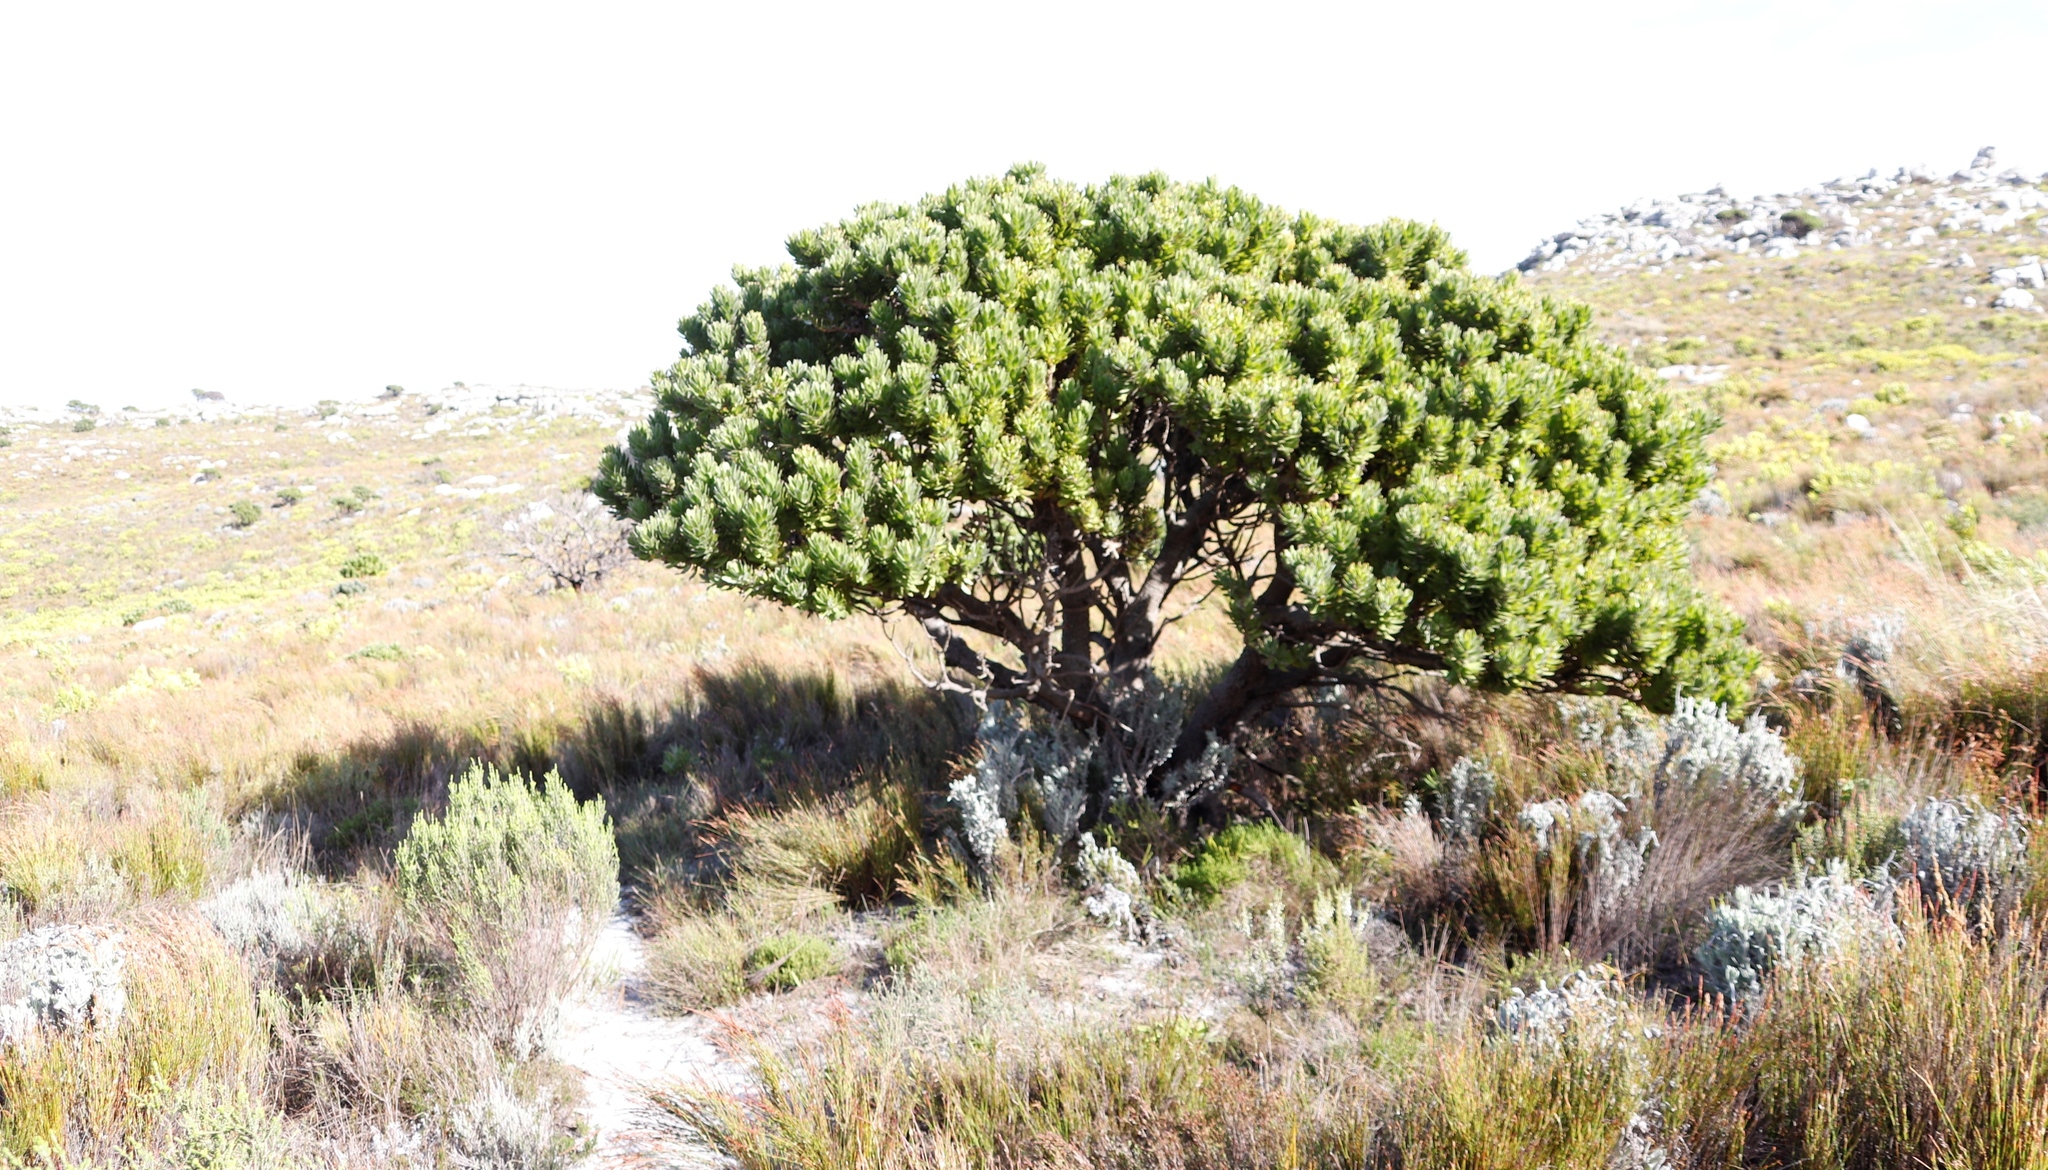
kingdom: Plantae
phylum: Tracheophyta
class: Magnoliopsida
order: Proteales
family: Proteaceae
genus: Mimetes
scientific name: Mimetes fimbriifolius
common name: Fringed bottlebrush
